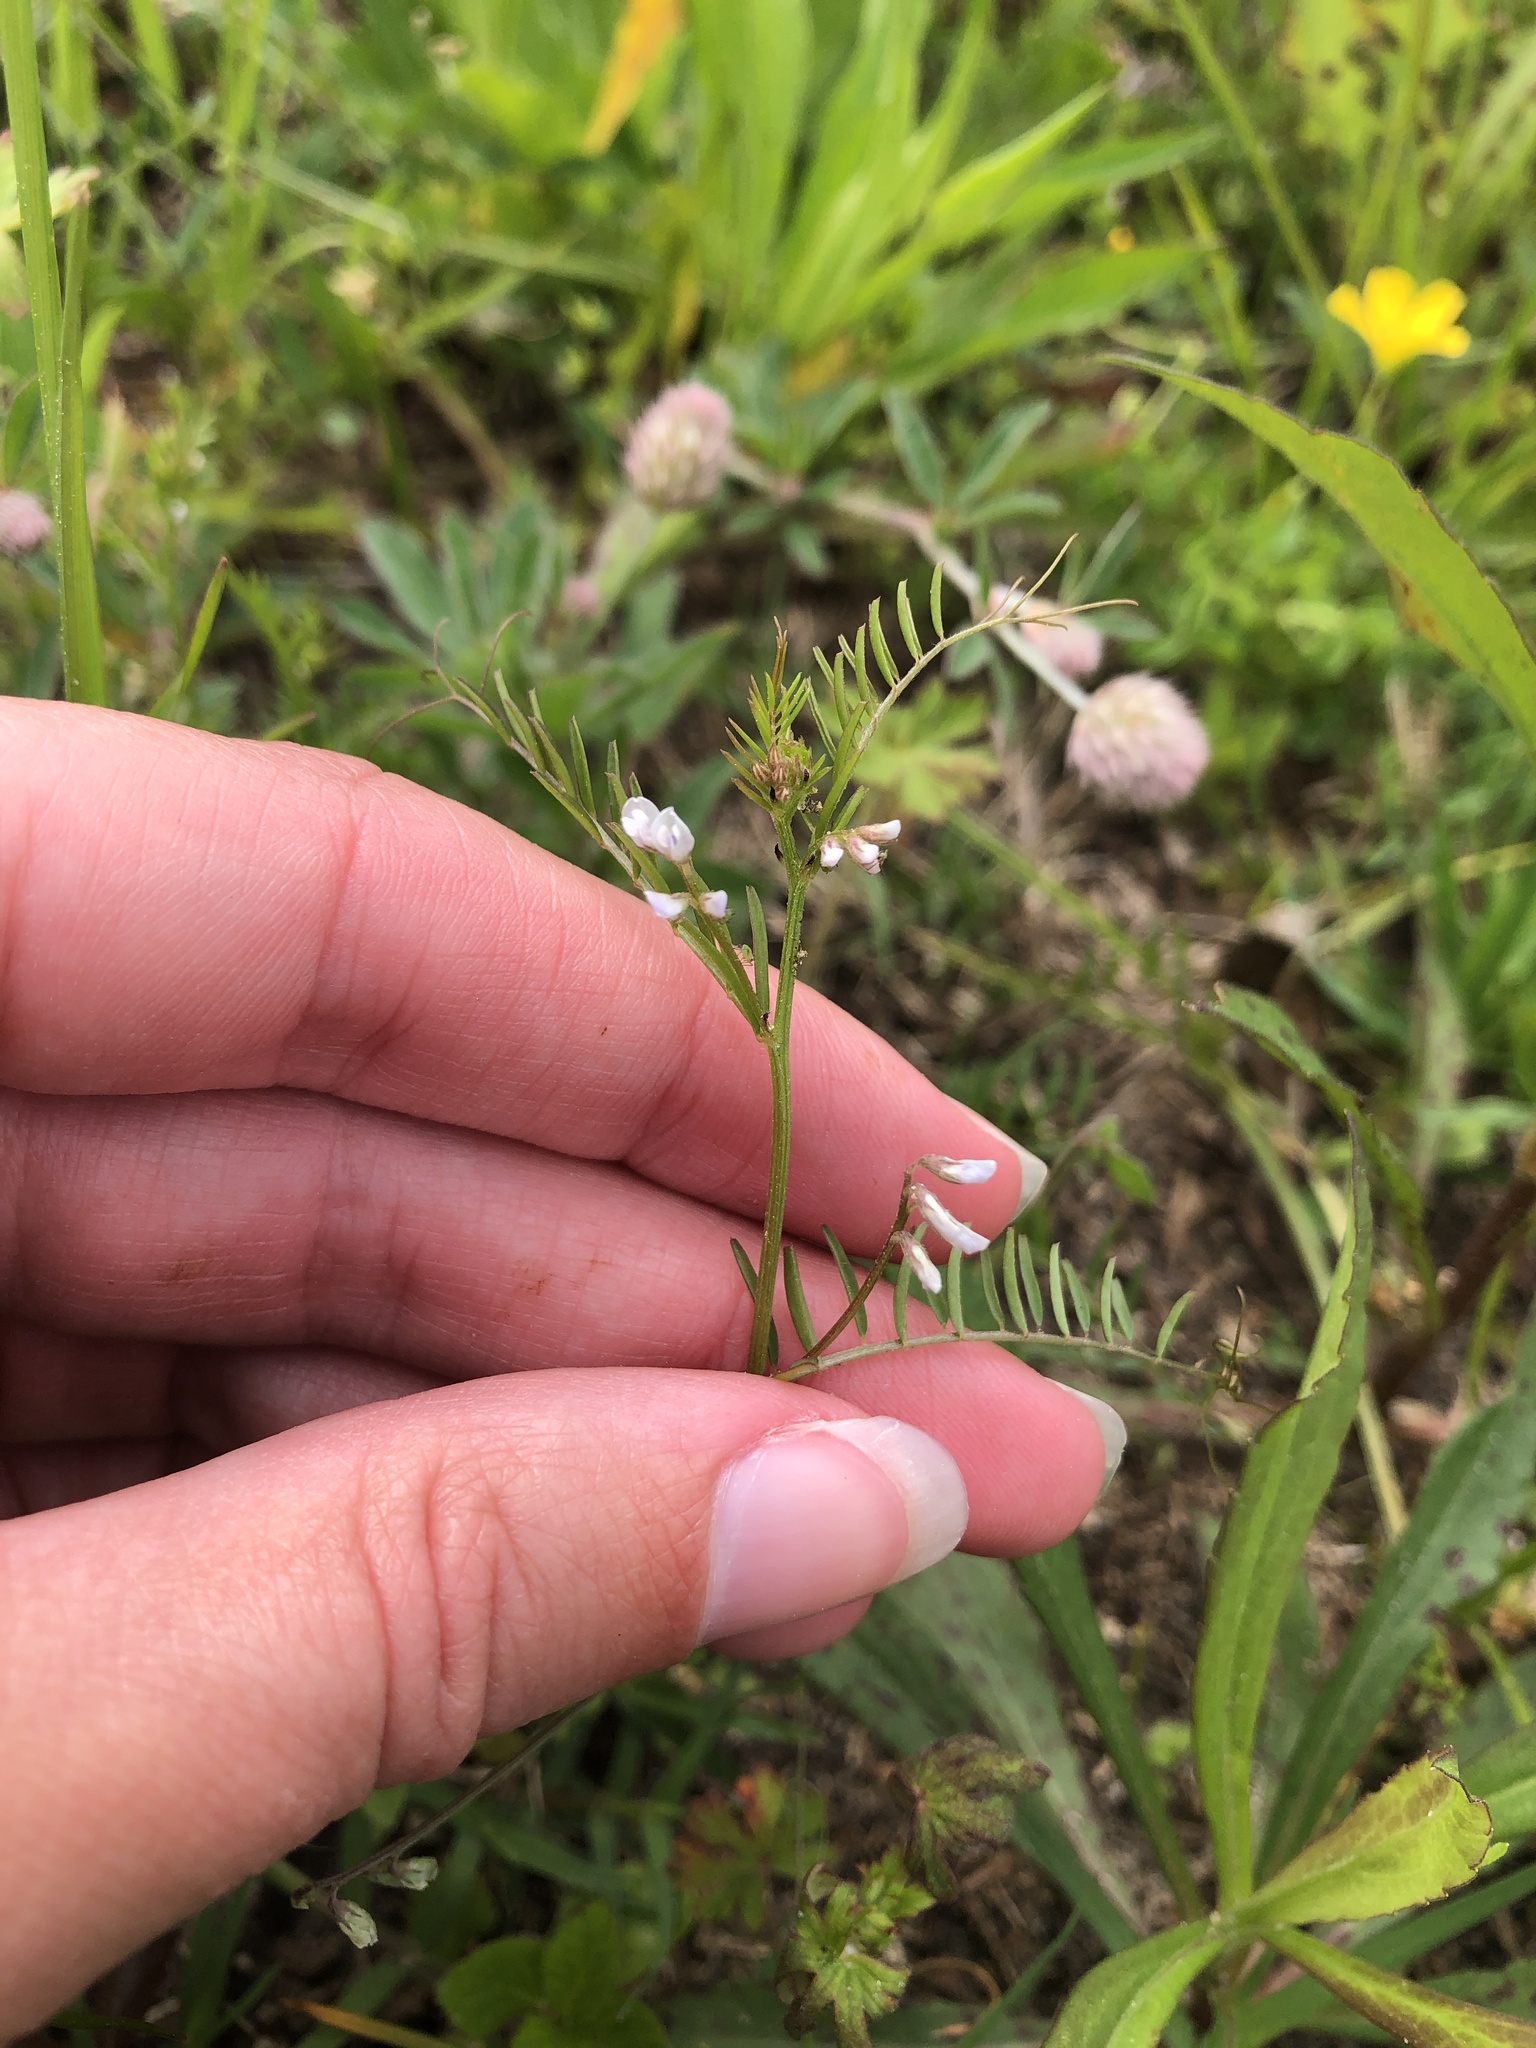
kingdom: Plantae
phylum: Tracheophyta
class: Magnoliopsida
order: Fabales
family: Fabaceae
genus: Vicia
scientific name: Vicia hirsuta
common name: Tiny vetch
